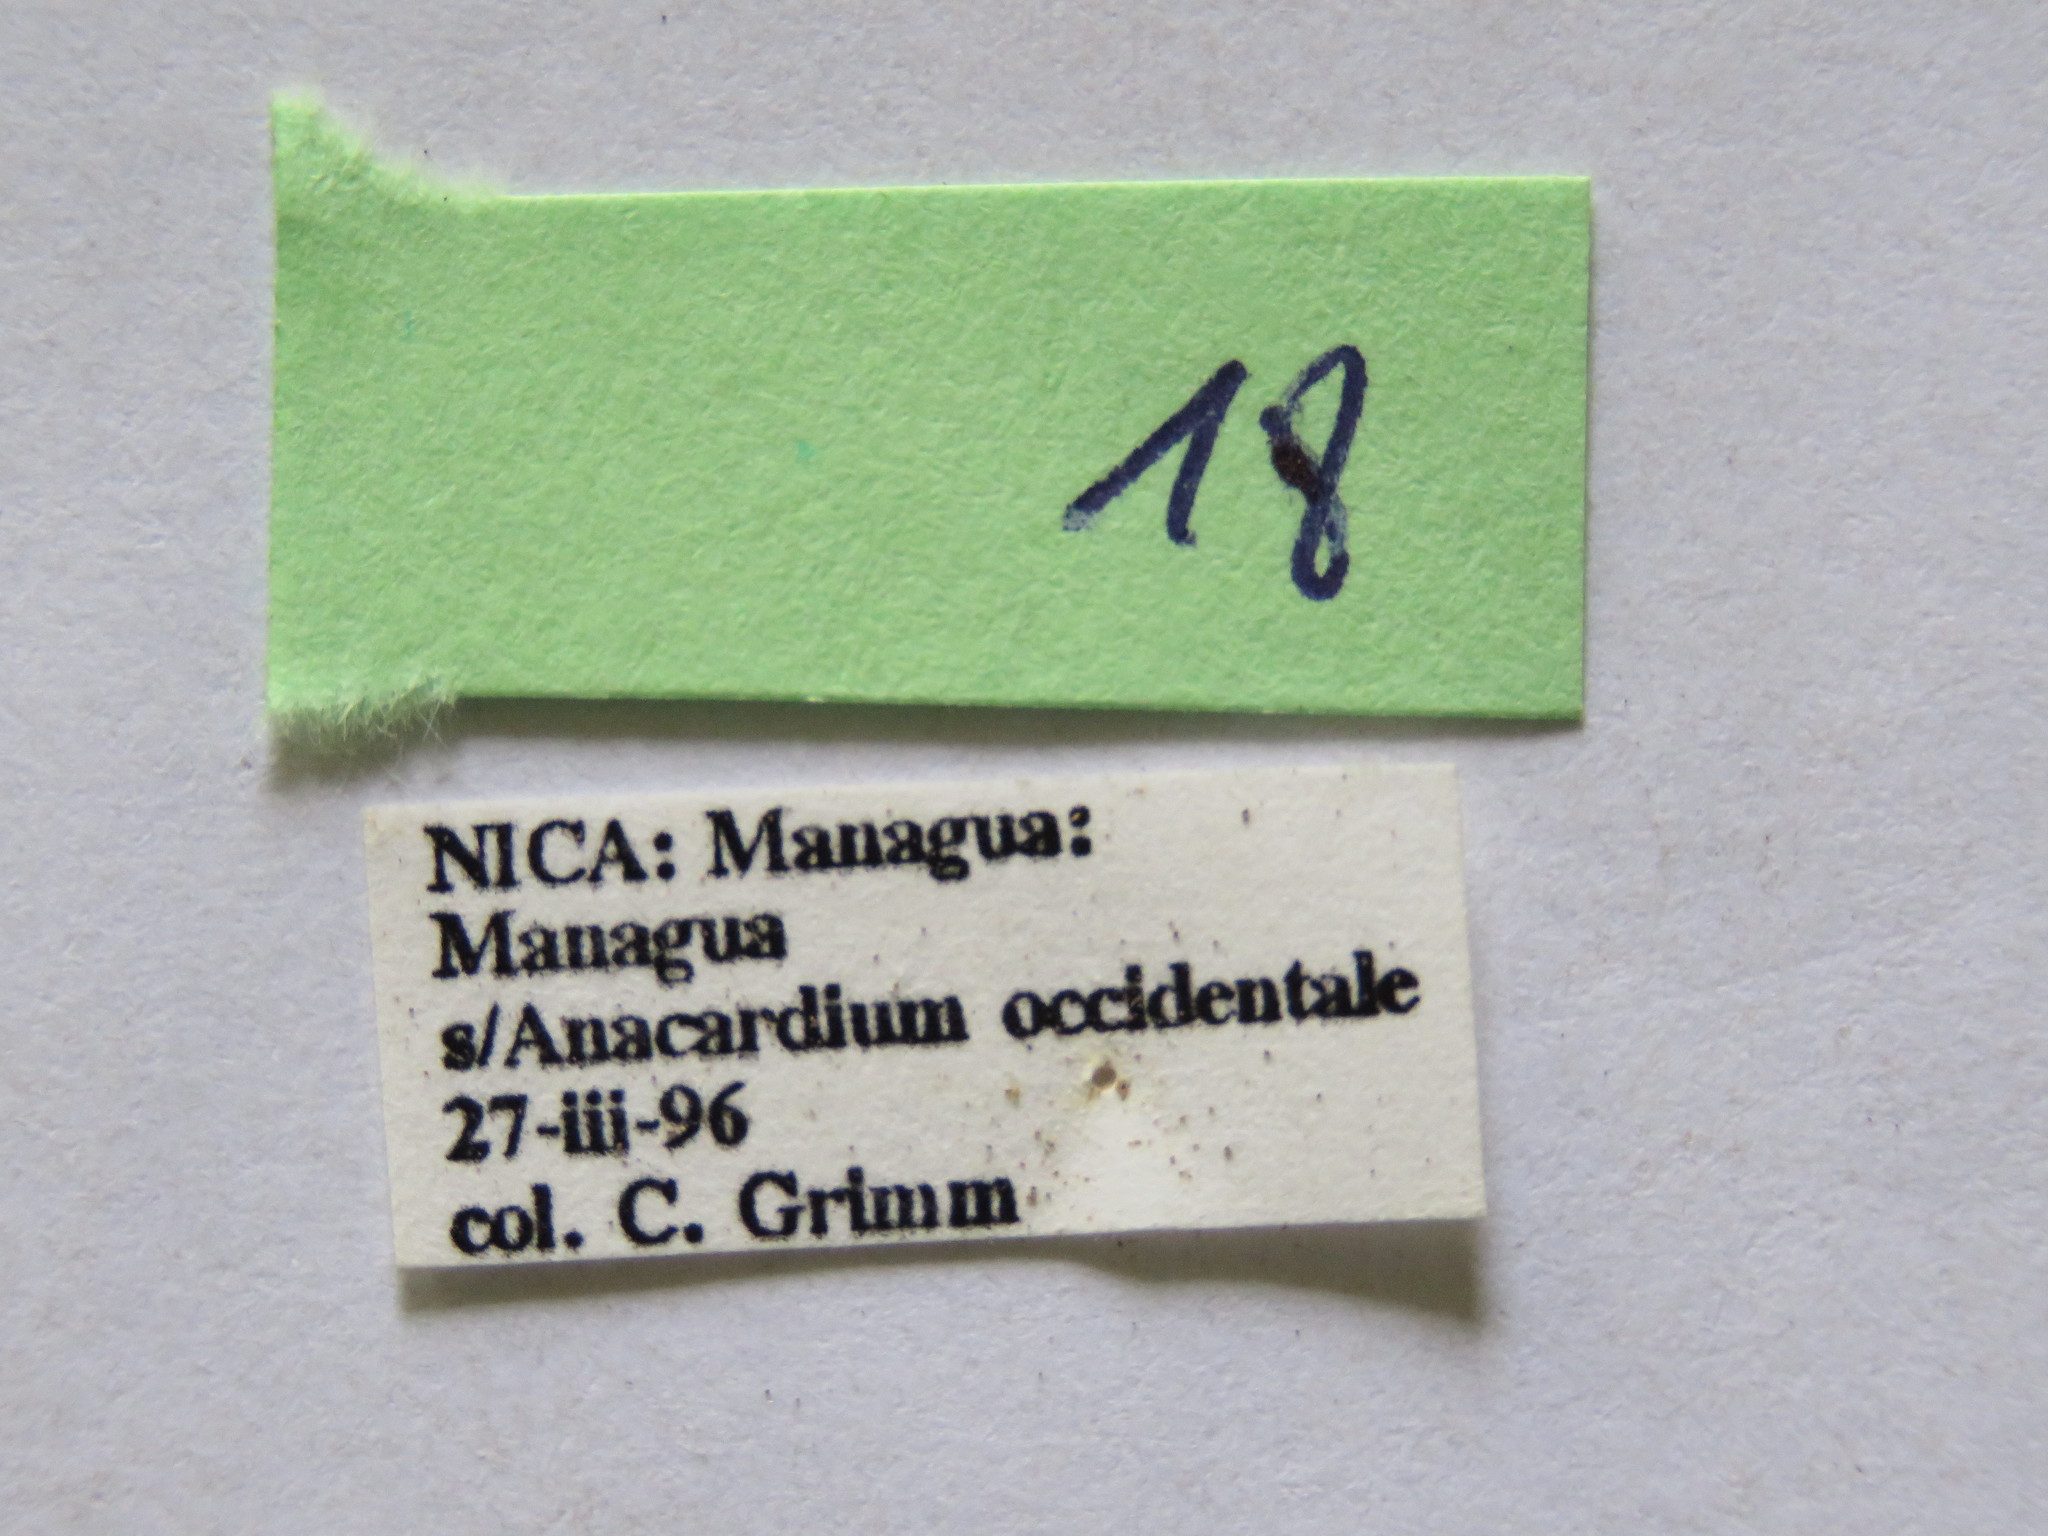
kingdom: Animalia
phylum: Arthropoda
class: Insecta
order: Hemiptera
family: Coreidae
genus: Leptoglossus
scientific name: Leptoglossus concolor
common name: Leaf-footed bug
